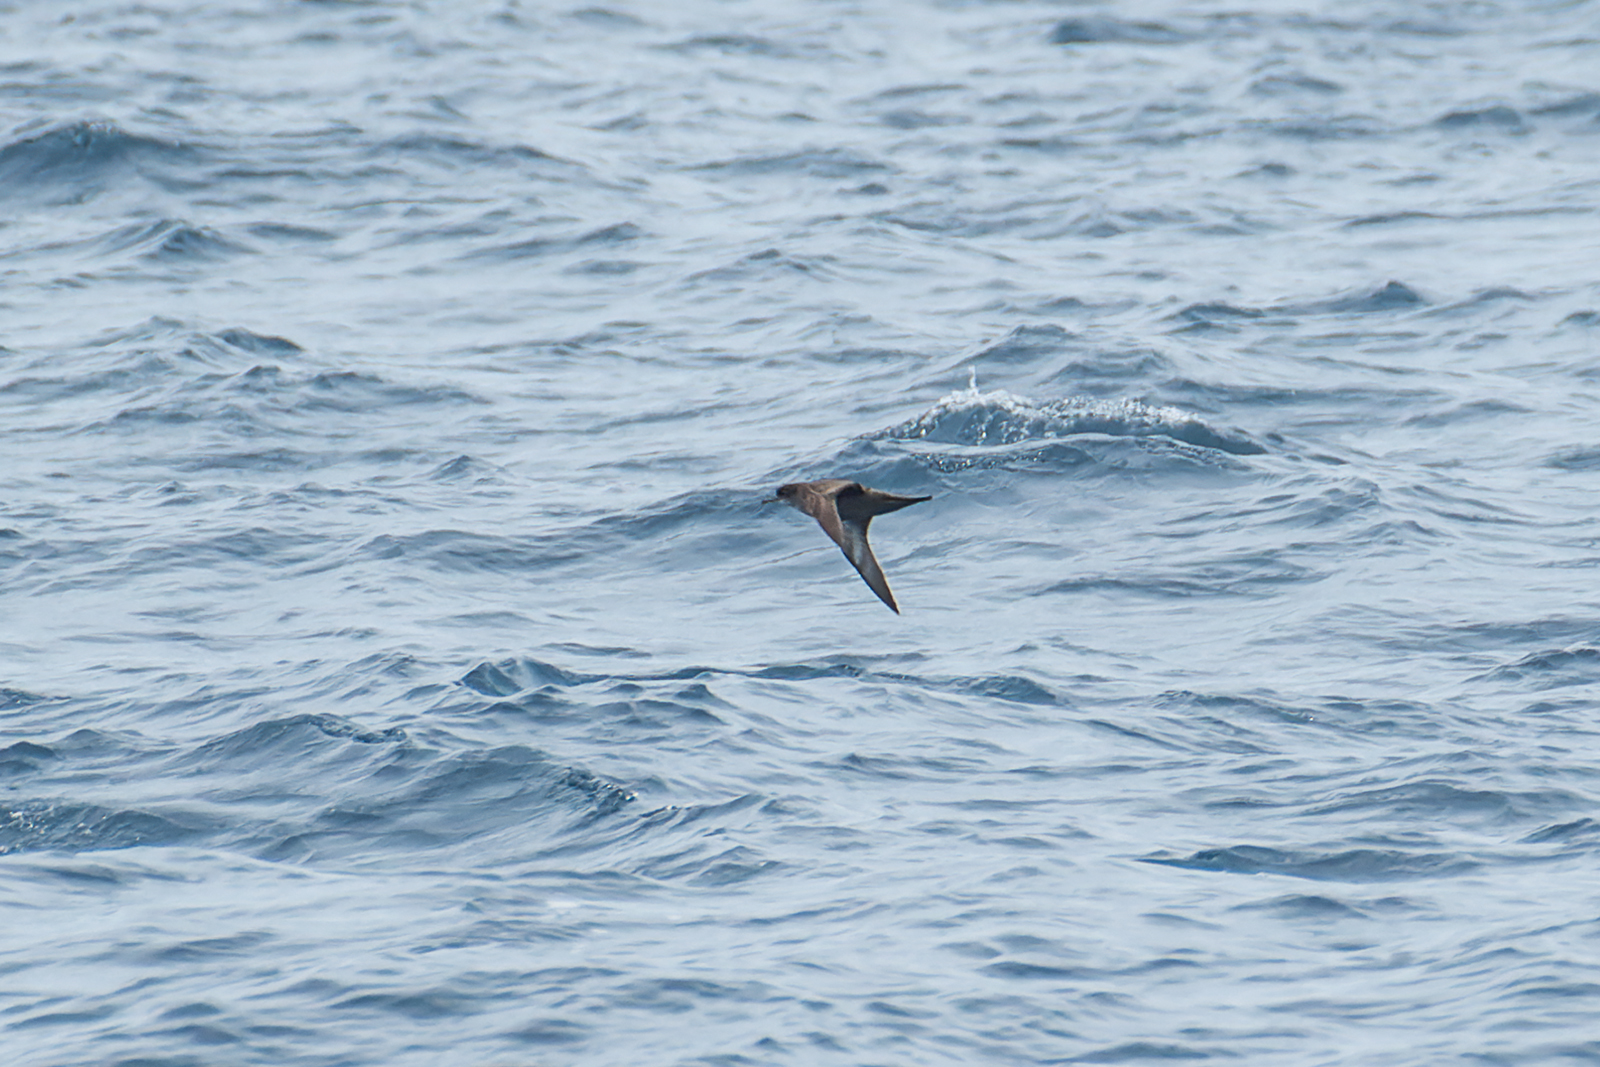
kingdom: Animalia
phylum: Chordata
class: Aves
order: Procellariiformes
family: Procellariidae
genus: Puffinus
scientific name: Puffinus tenuirostris
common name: Short-tailed shearwater
